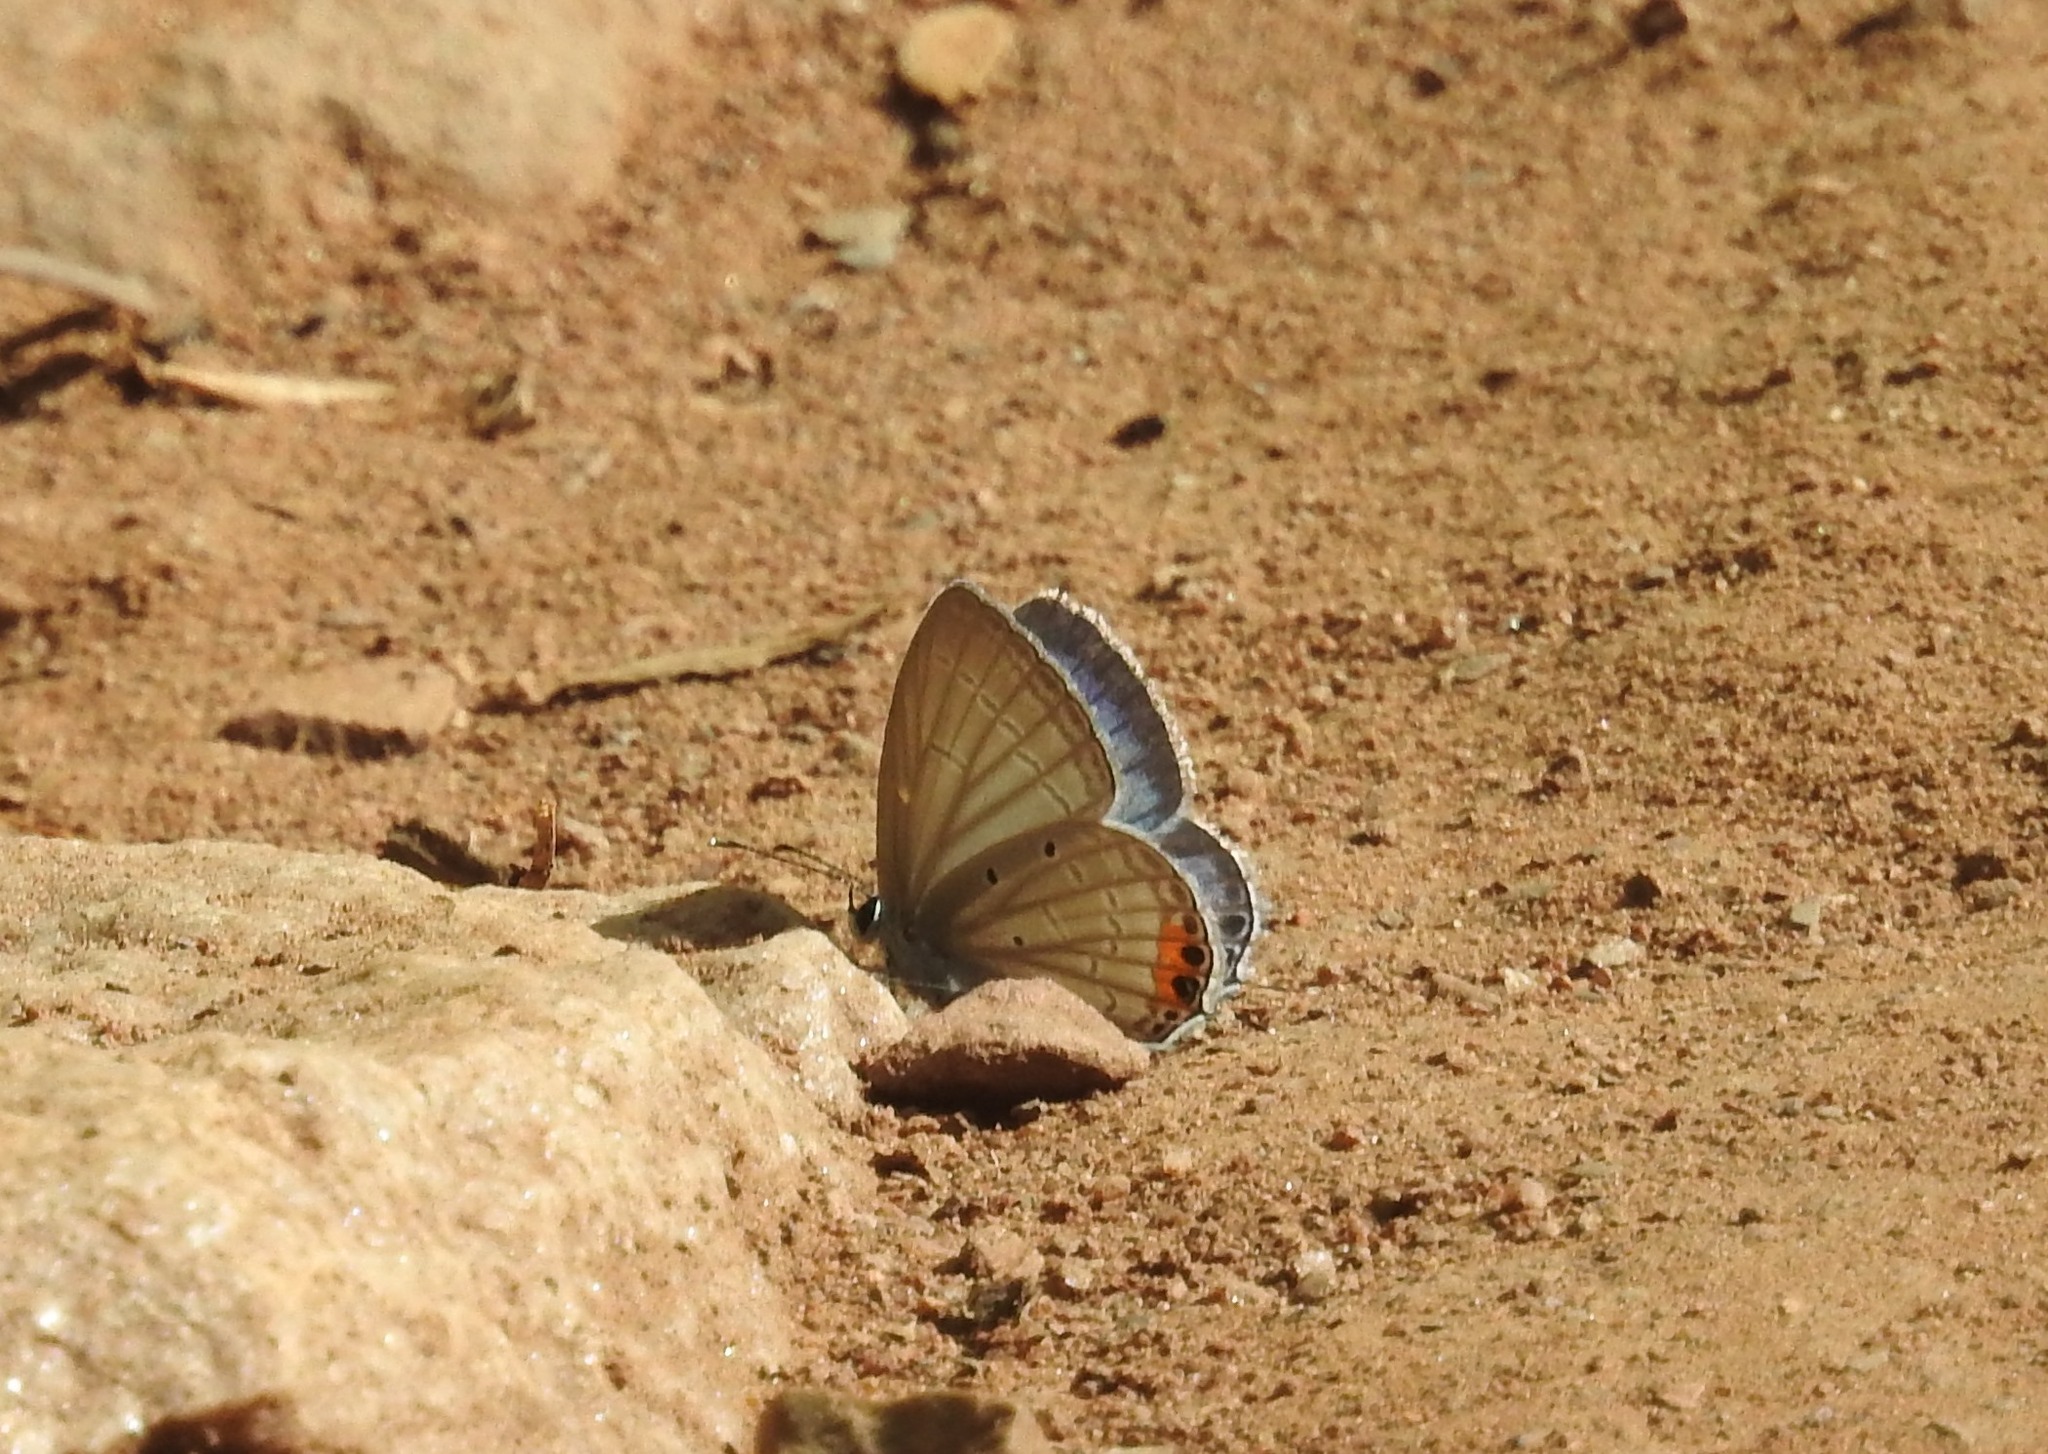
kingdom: Animalia
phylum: Arthropoda
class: Insecta
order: Lepidoptera
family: Lycaenidae
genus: Everes
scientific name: Everes lacturnus
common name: Orange-tipped pea-blue
